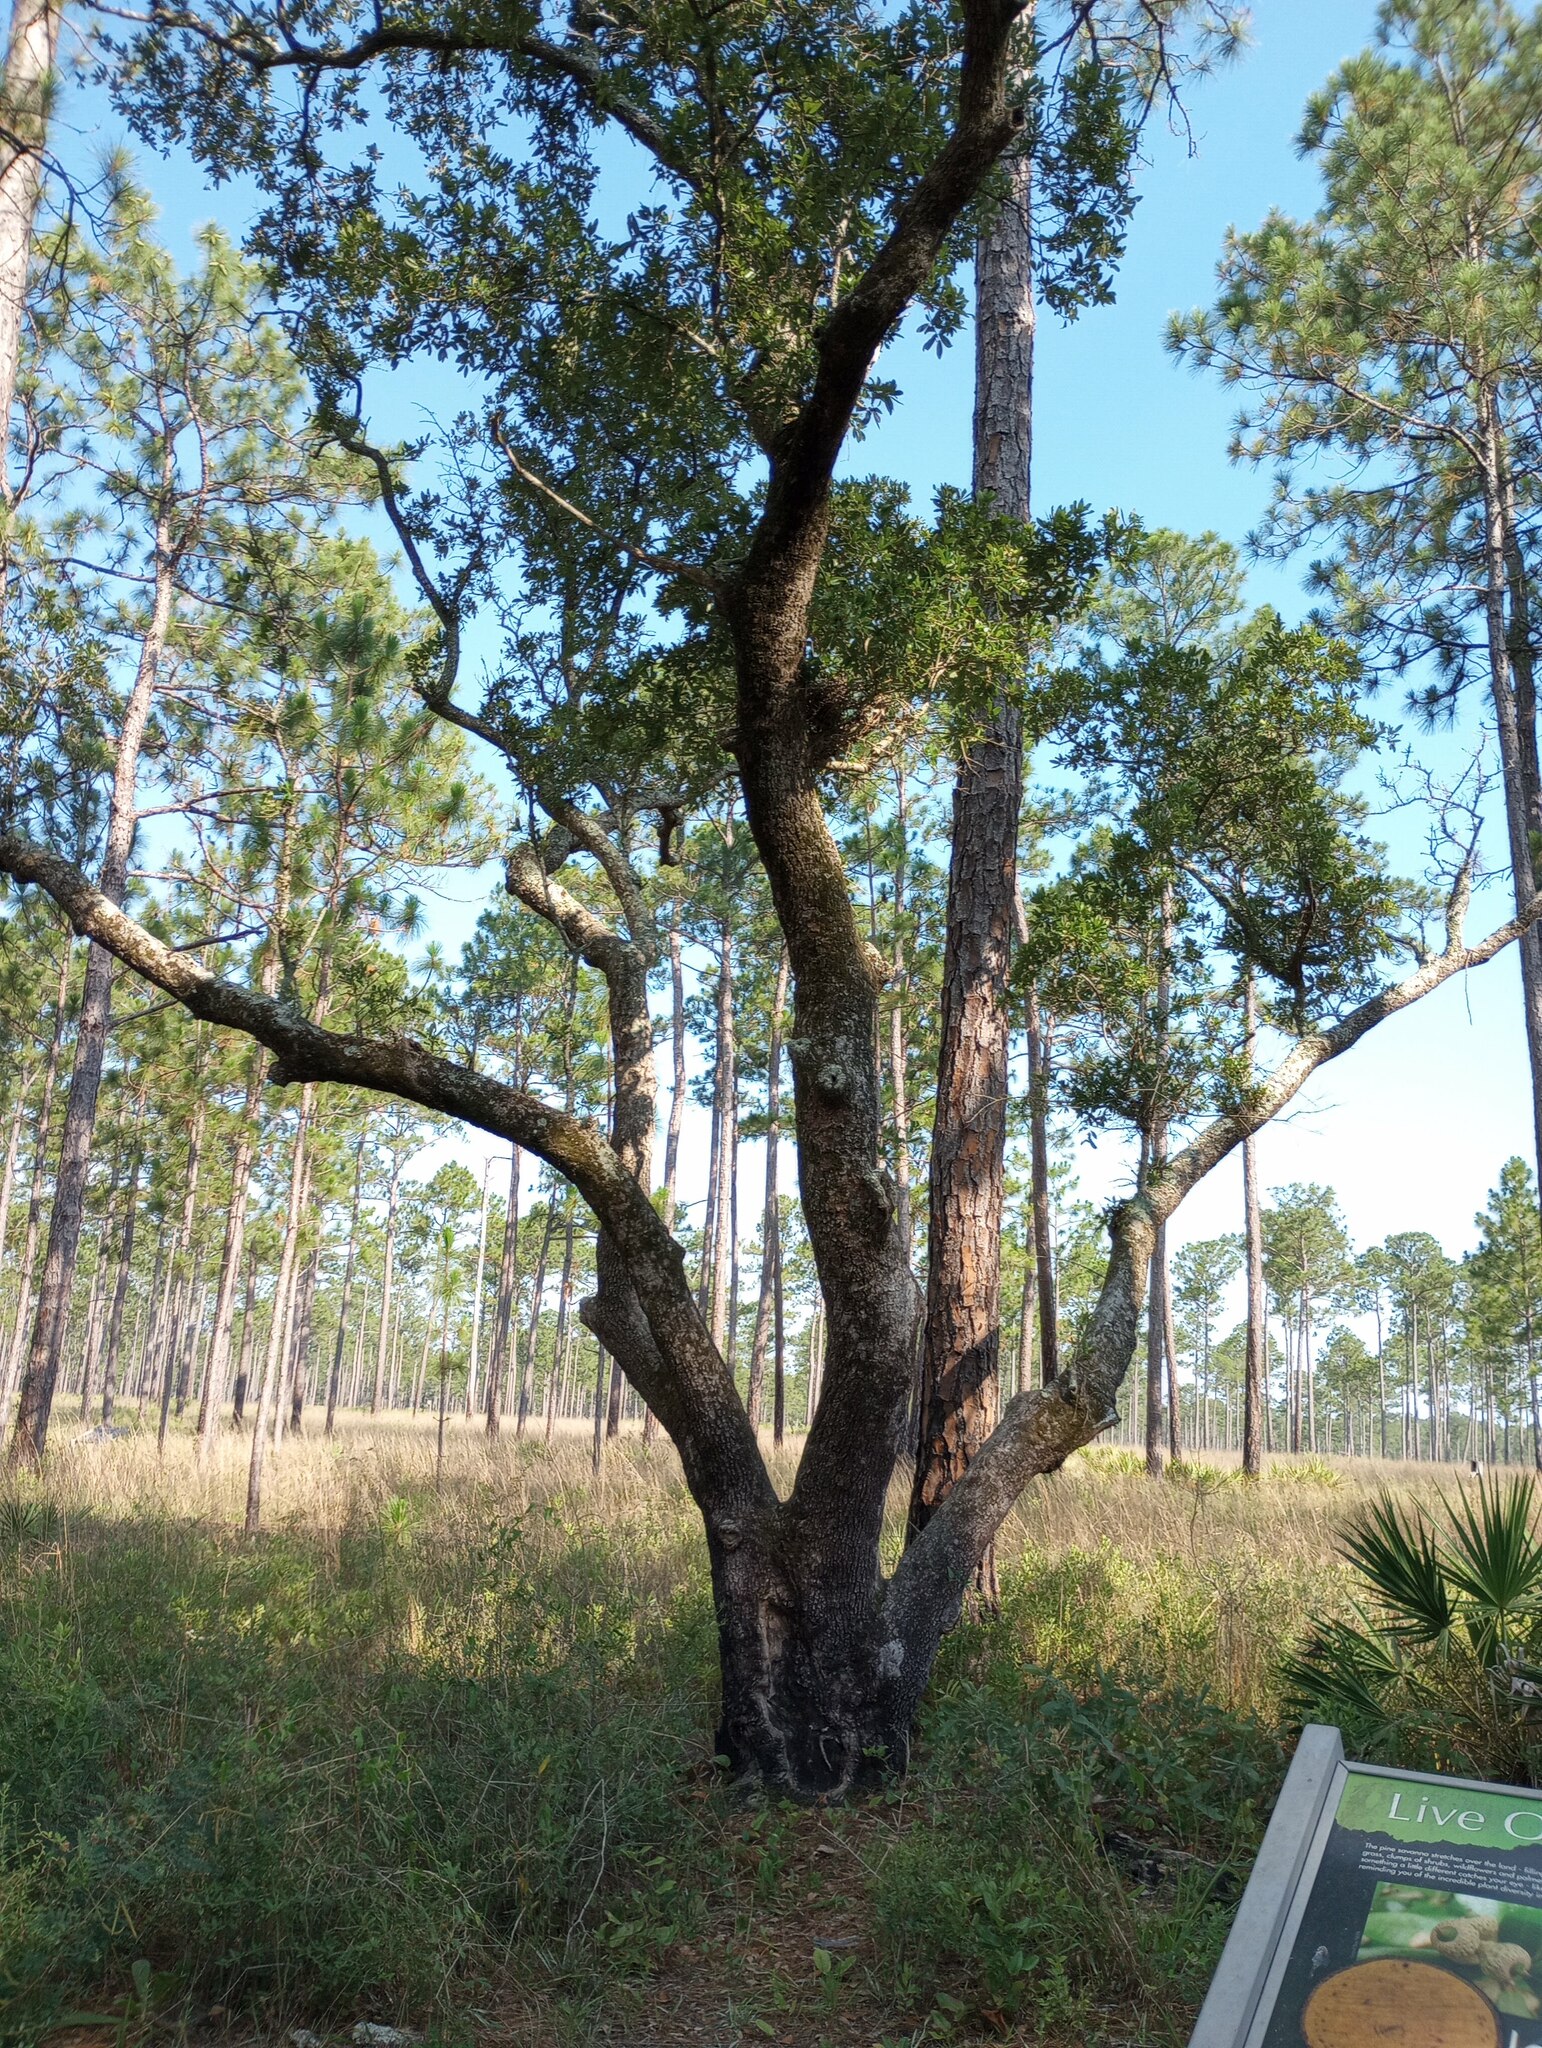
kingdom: Plantae
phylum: Tracheophyta
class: Magnoliopsida
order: Fagales
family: Fagaceae
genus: Quercus
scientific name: Quercus virginiana
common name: Southern live oak
